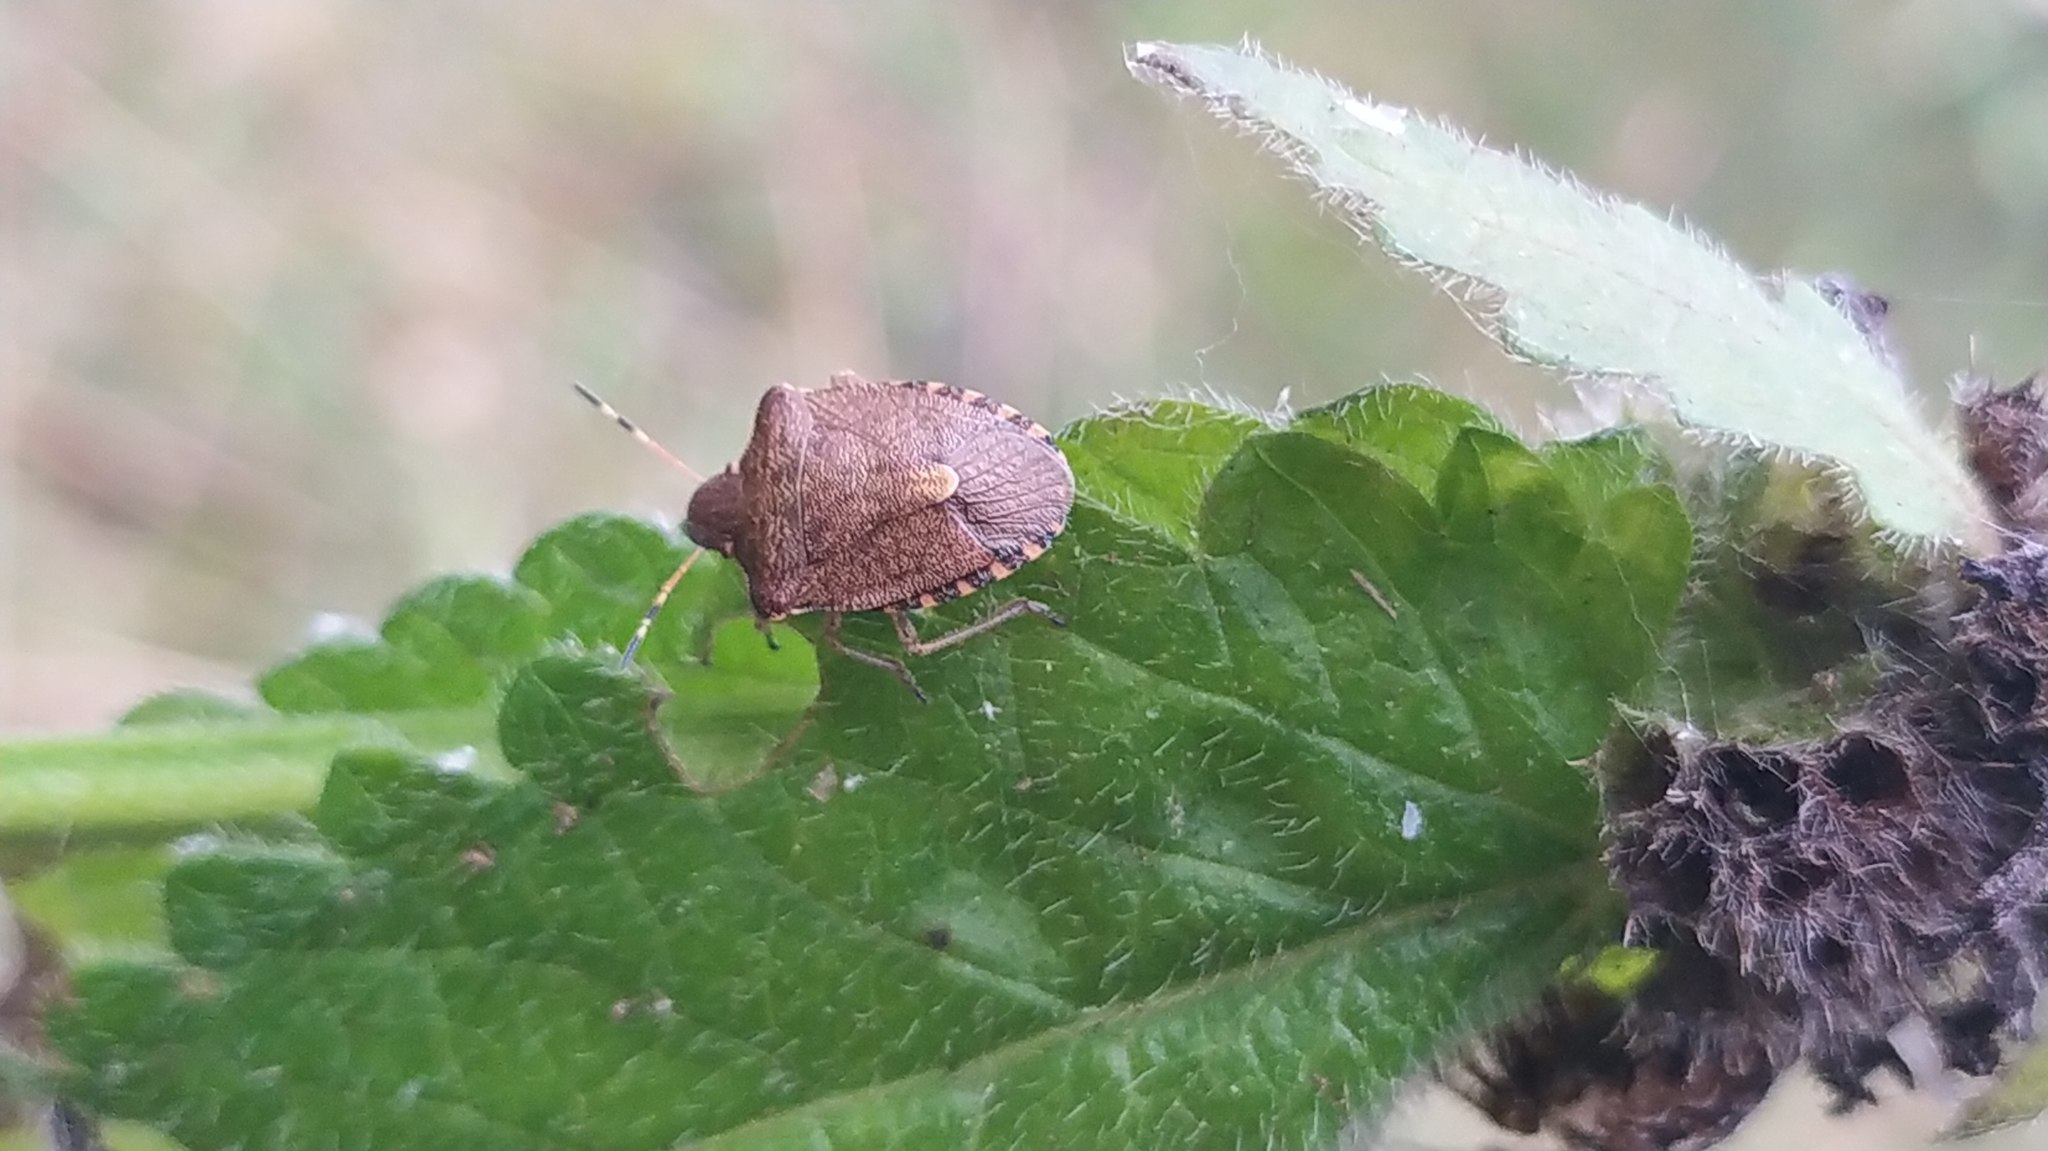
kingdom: Animalia
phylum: Arthropoda
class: Insecta
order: Hemiptera
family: Pentatomidae
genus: Holcostethus
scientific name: Holcostethus strictus
